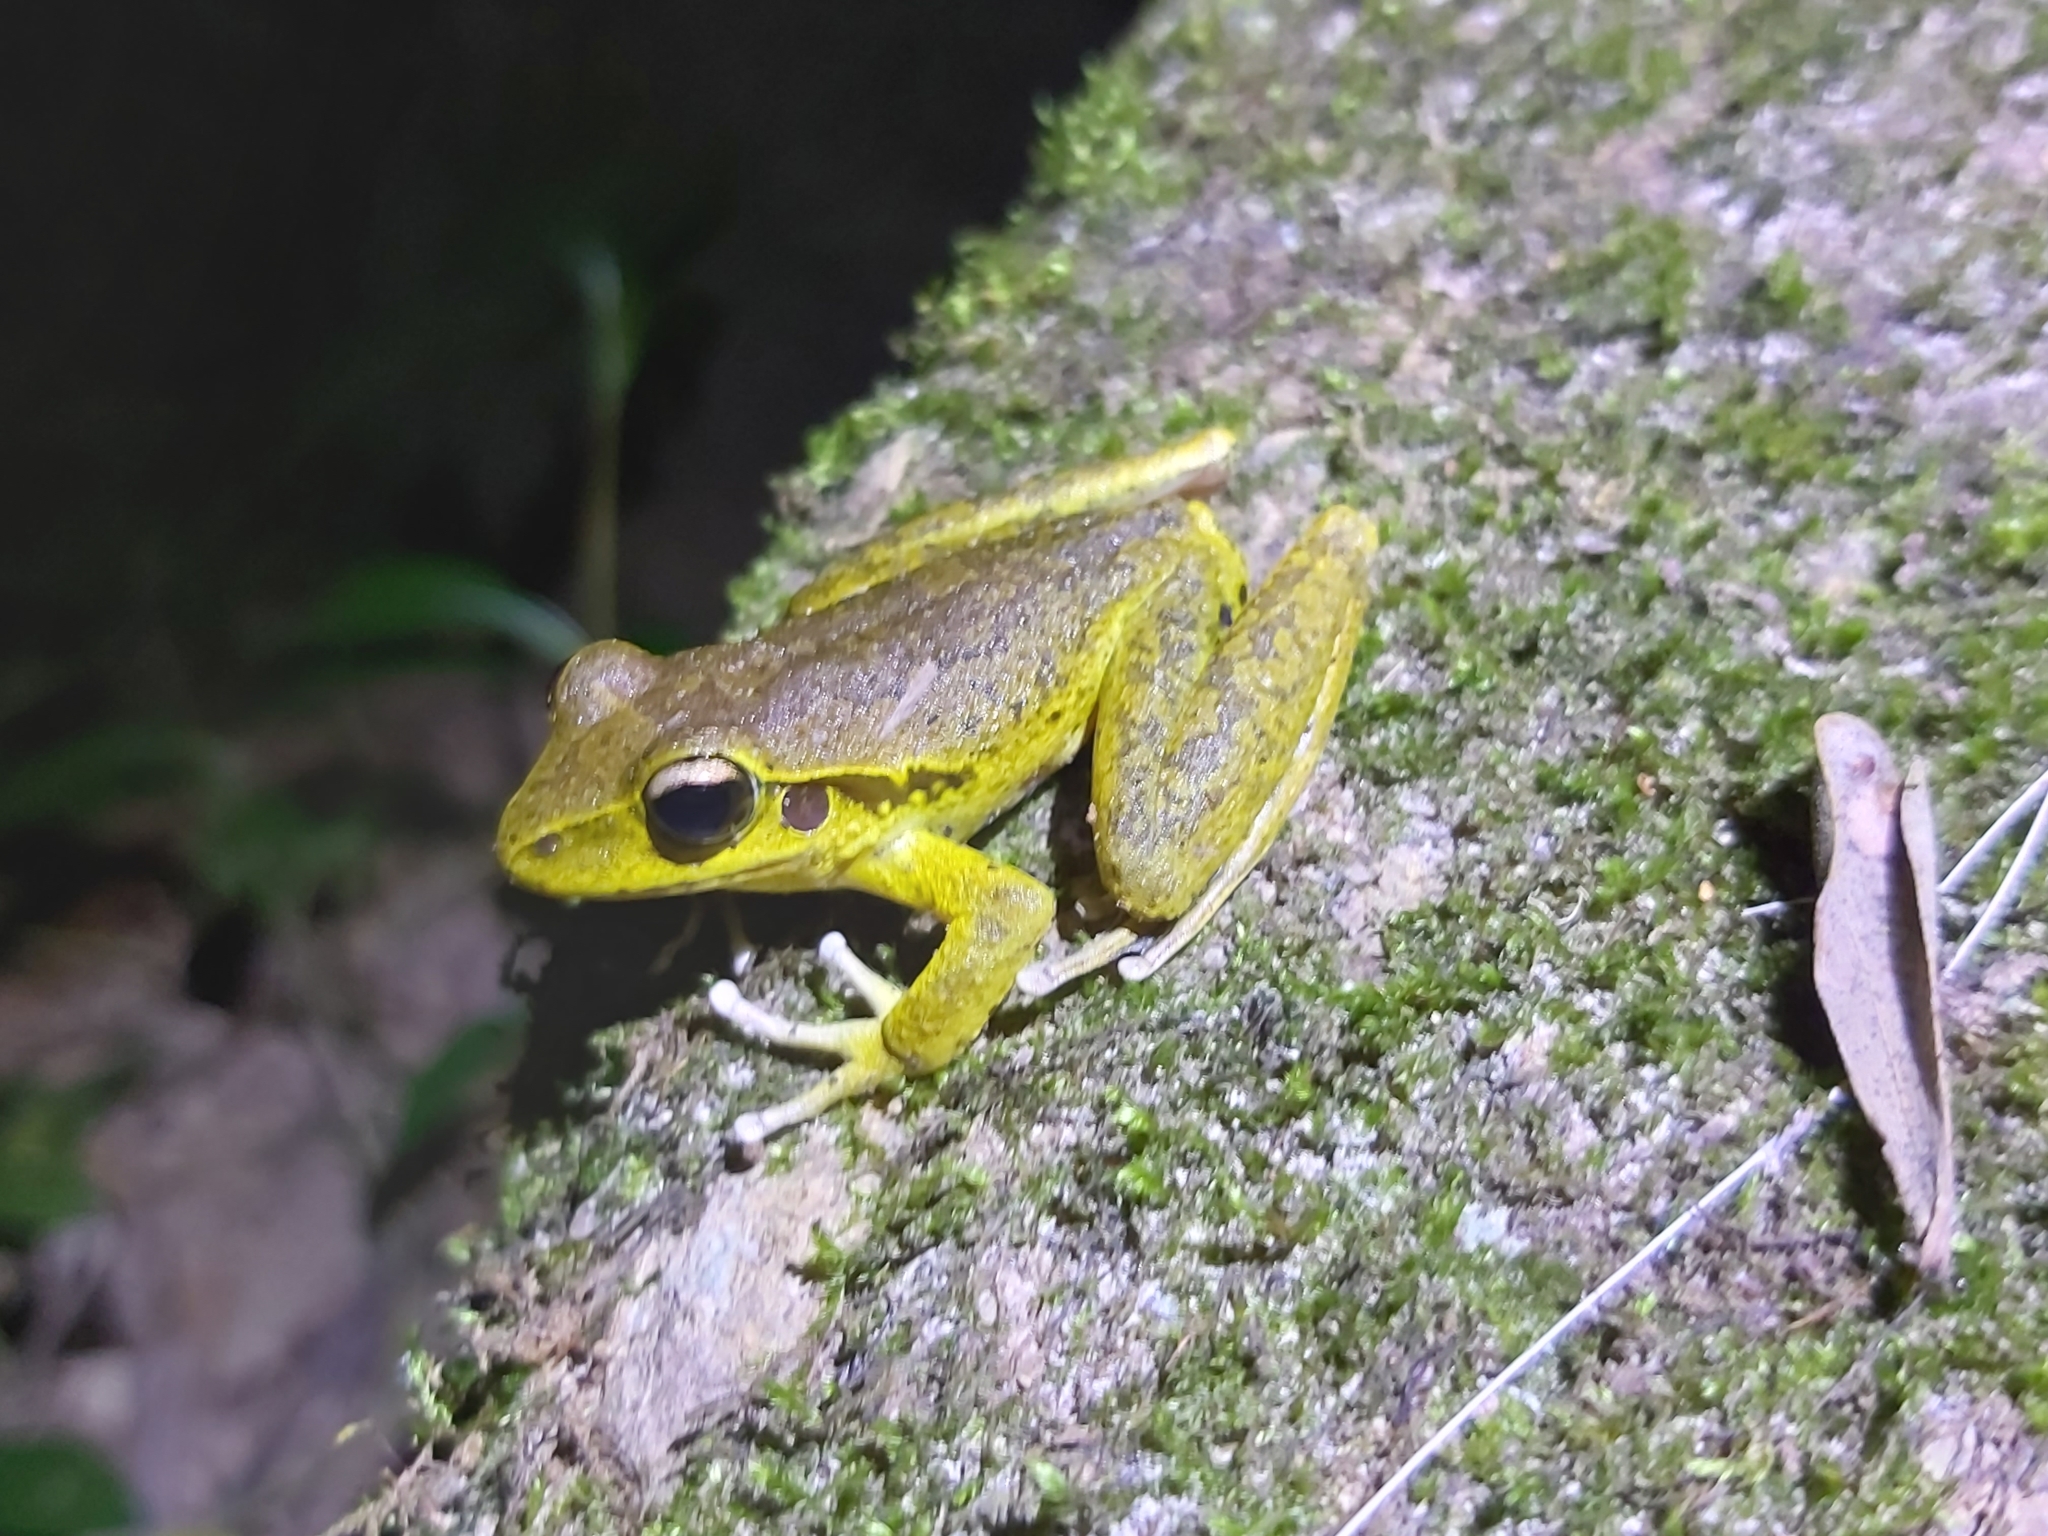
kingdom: Animalia
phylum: Chordata
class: Amphibia
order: Anura
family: Hylidae
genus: Ranoidea
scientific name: Ranoidea
